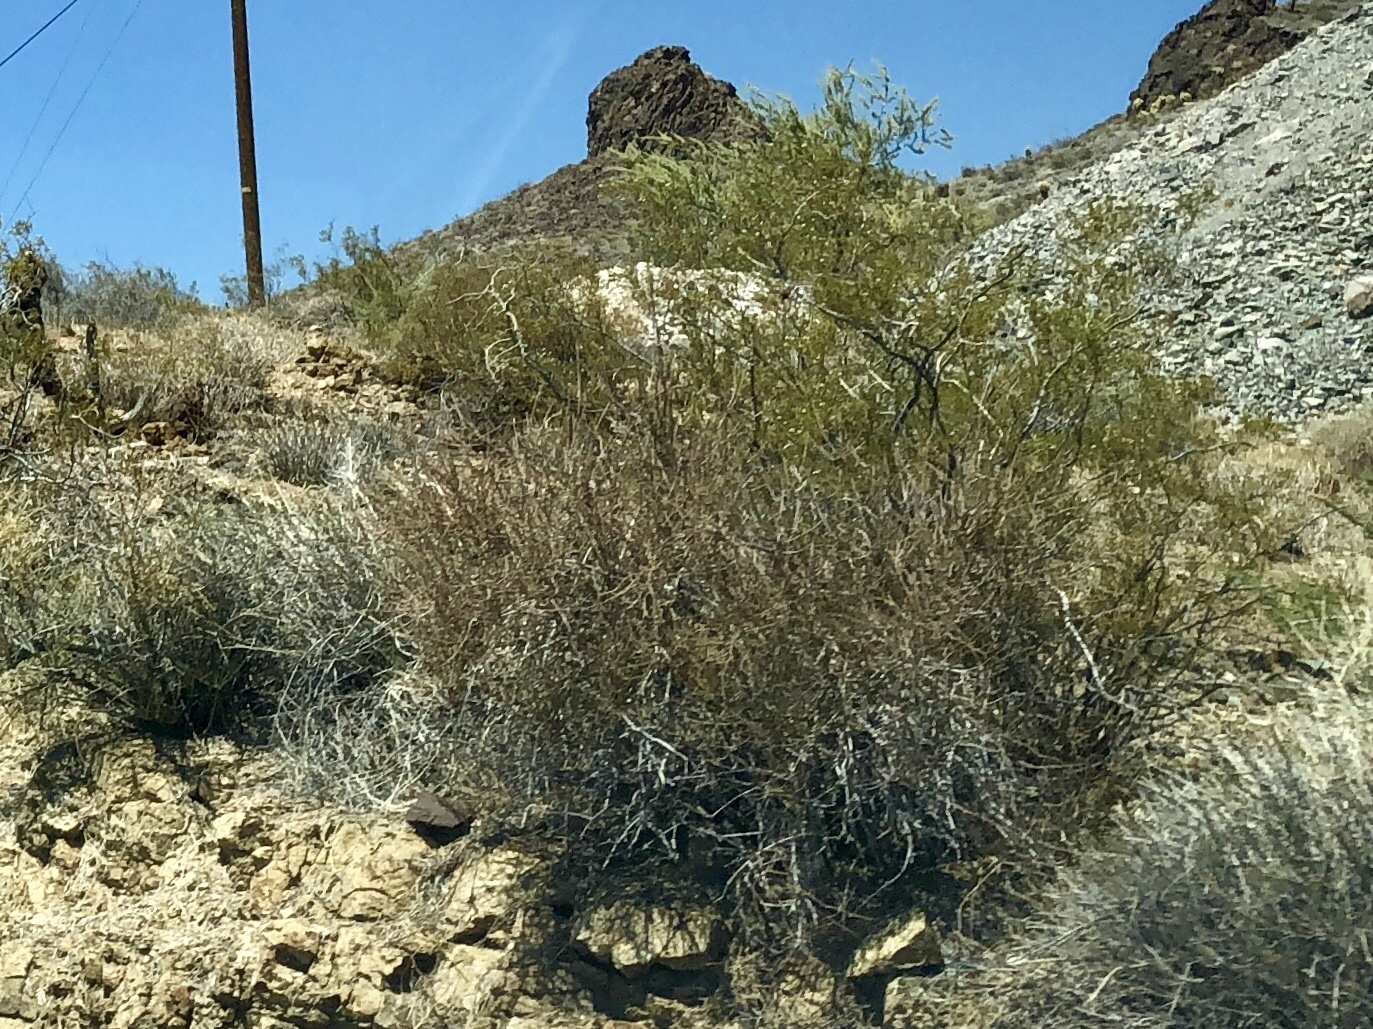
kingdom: Plantae
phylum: Tracheophyta
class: Magnoliopsida
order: Zygophyllales
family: Zygophyllaceae
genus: Larrea
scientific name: Larrea tridentata
